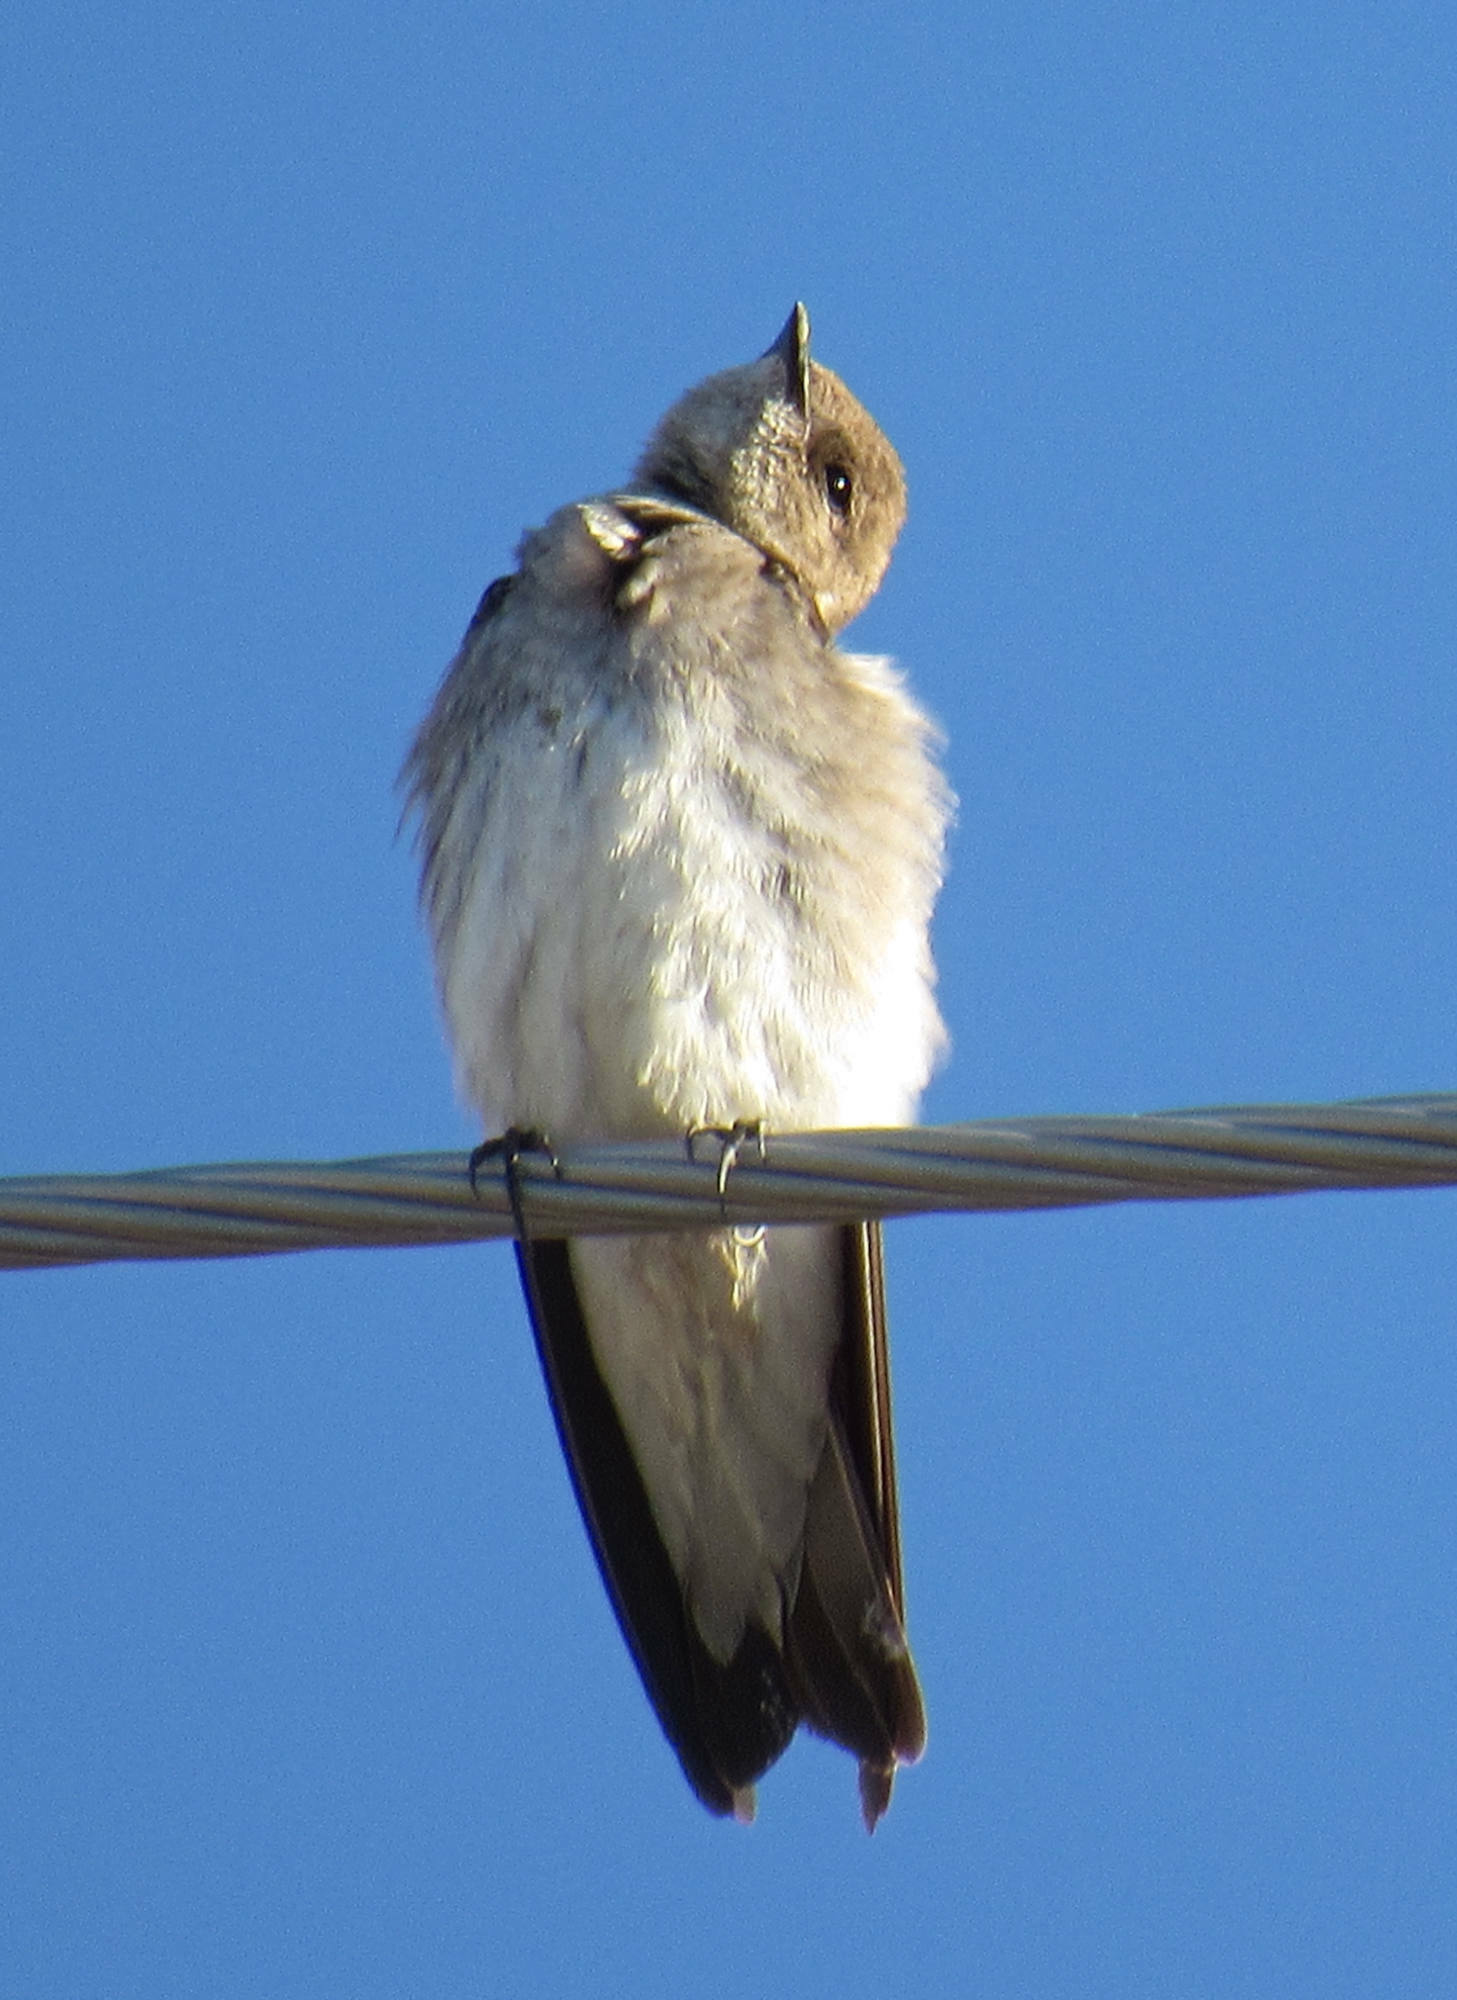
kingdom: Animalia
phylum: Chordata
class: Aves
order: Passeriformes
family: Hirundinidae
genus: Stelgidopteryx
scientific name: Stelgidopteryx serripennis
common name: Northern rough-winged swallow
